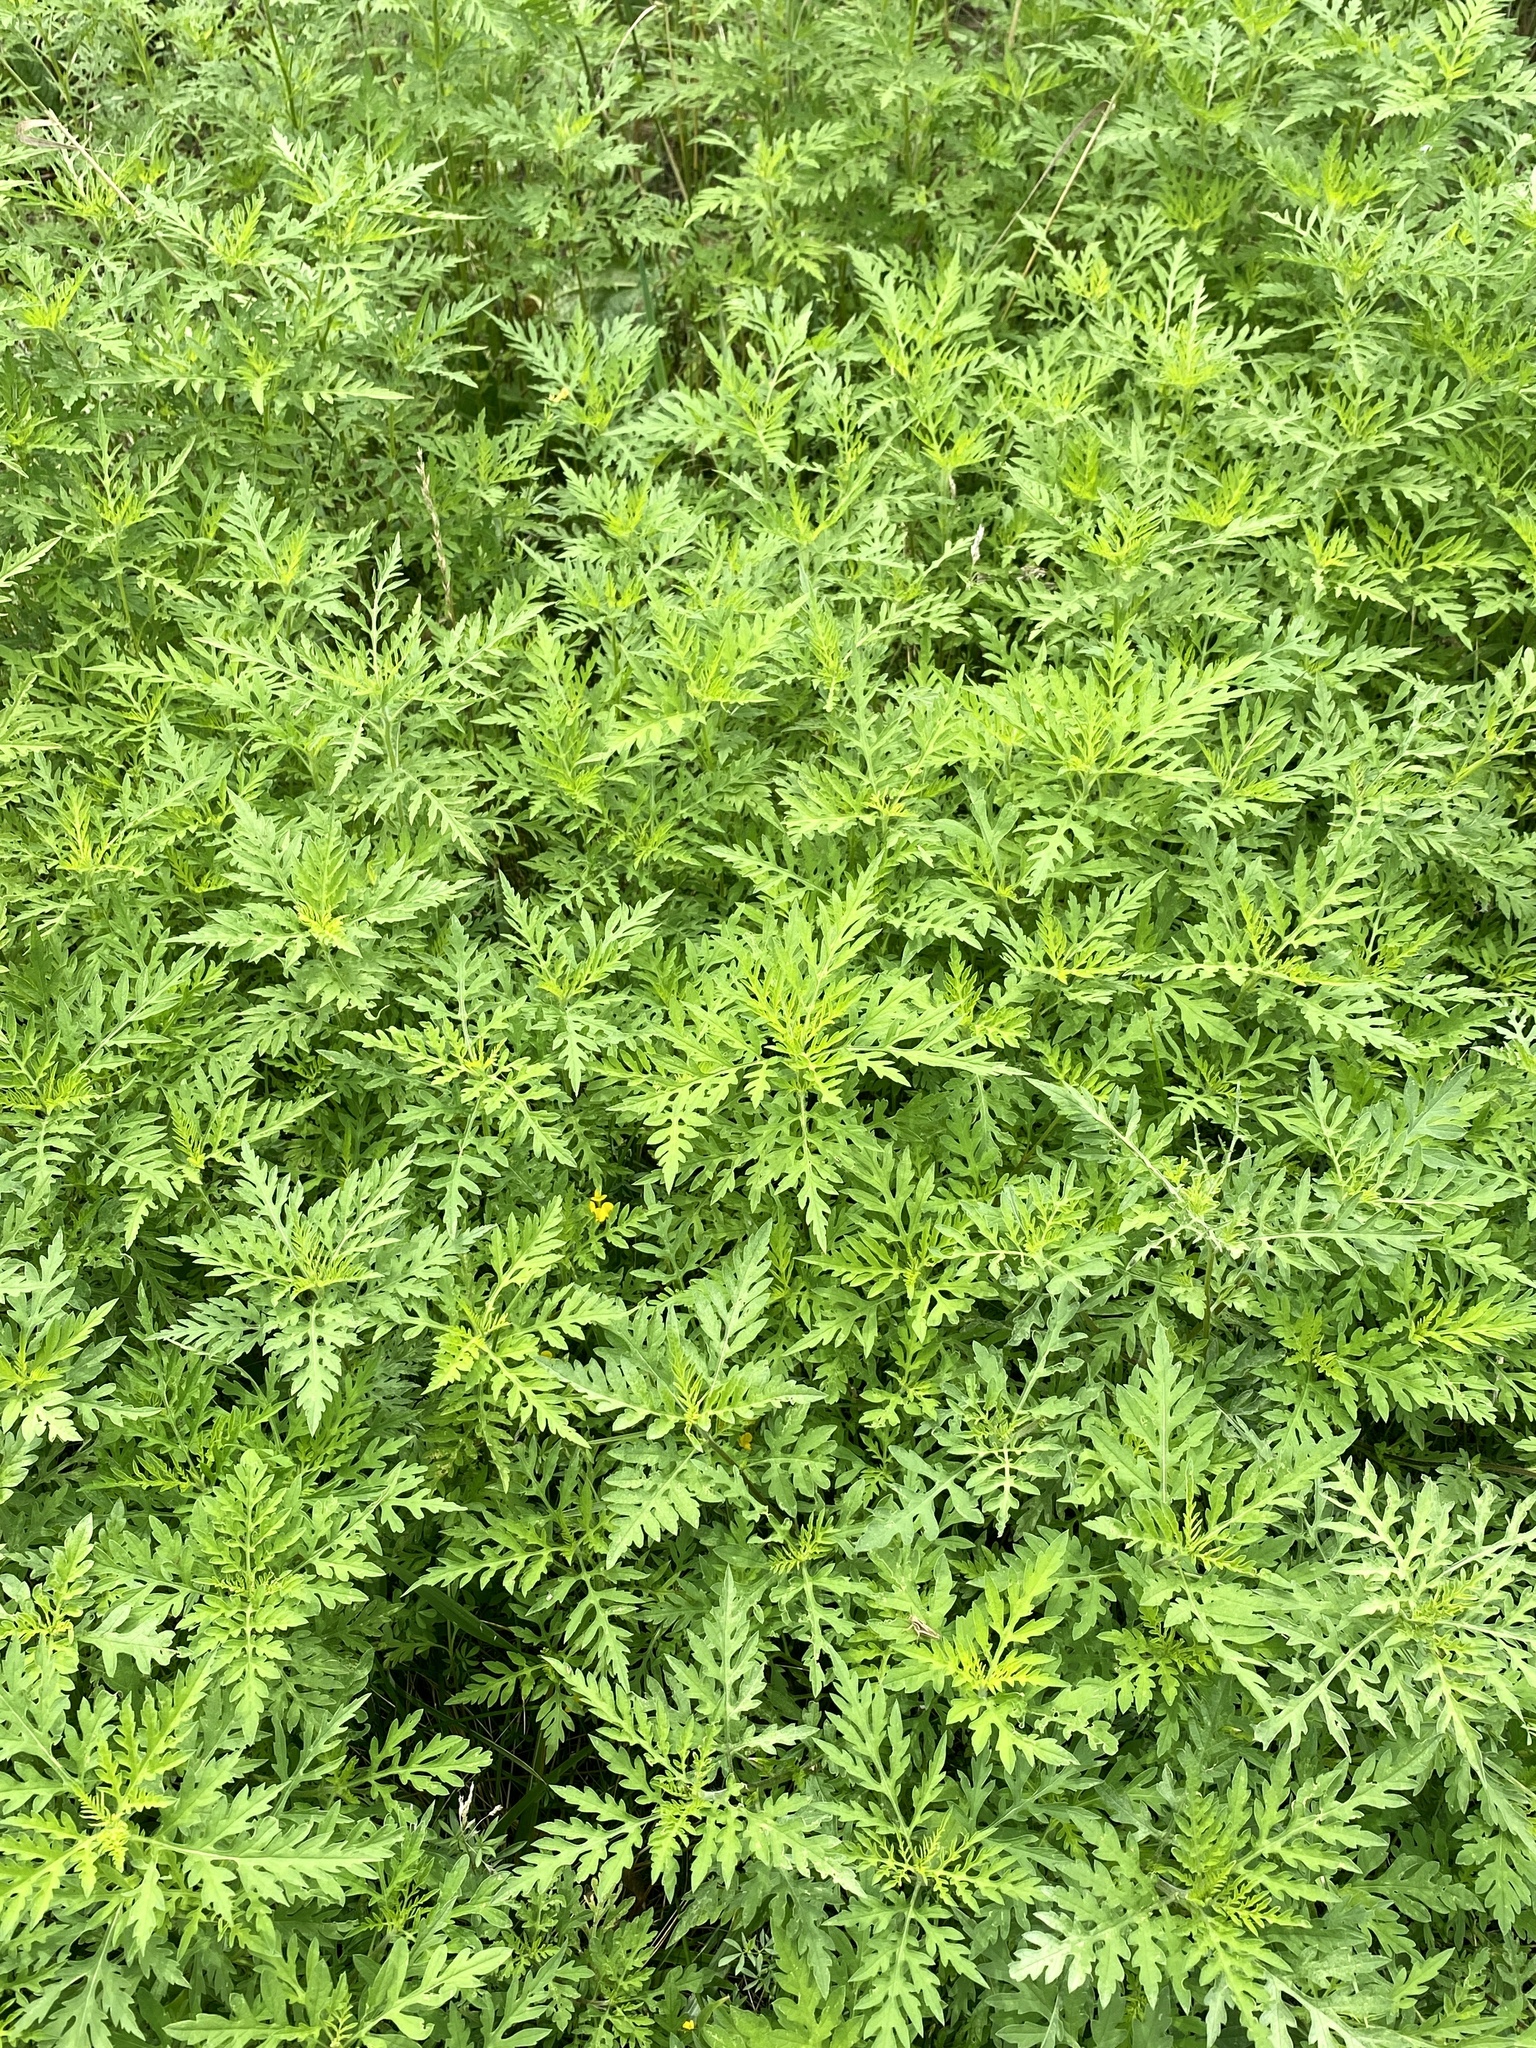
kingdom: Plantae
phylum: Tracheophyta
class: Magnoliopsida
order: Asterales
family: Asteraceae
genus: Ambrosia
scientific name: Ambrosia artemisiifolia
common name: Annual ragweed
